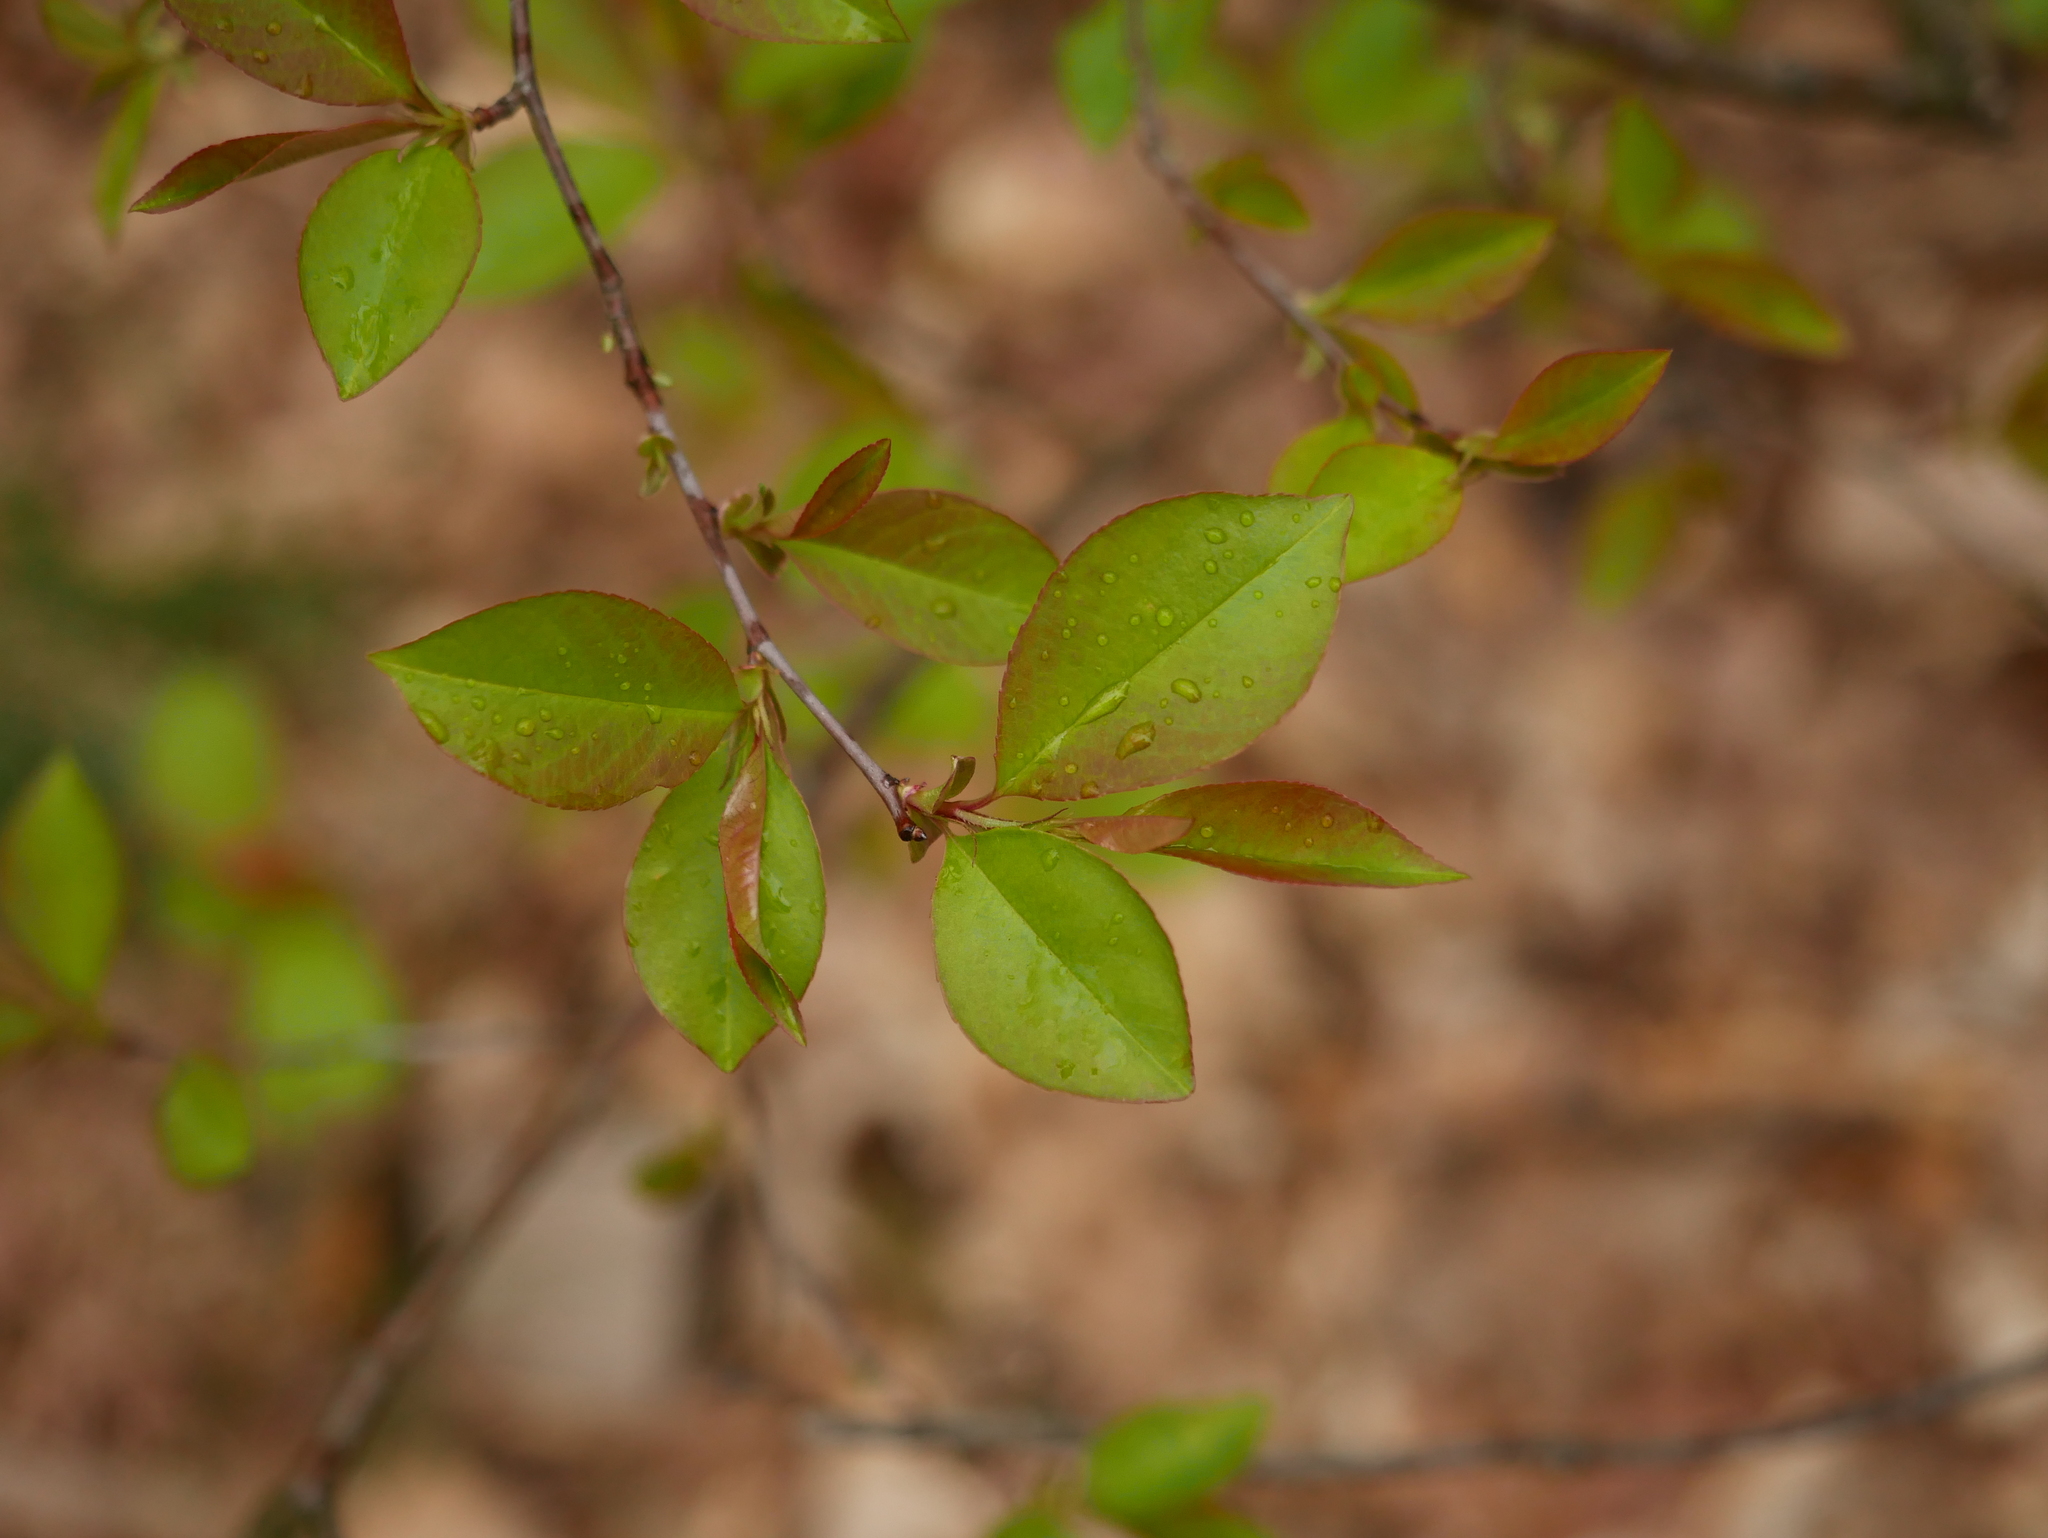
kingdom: Plantae
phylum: Tracheophyta
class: Magnoliopsida
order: Rosales
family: Rosaceae
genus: Prunus
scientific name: Prunus serotina
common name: Black cherry
